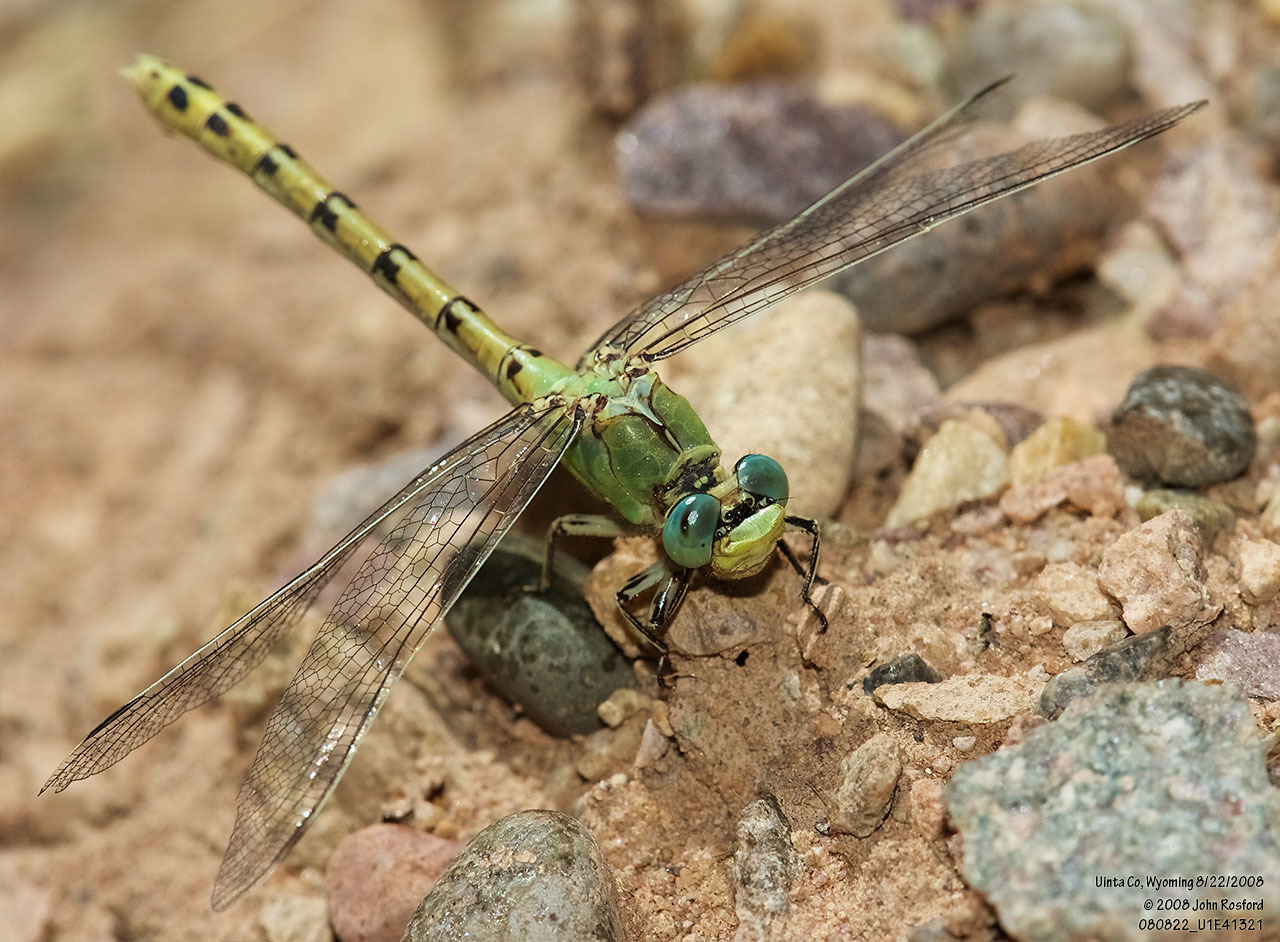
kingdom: Animalia
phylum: Arthropoda
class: Insecta
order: Odonata
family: Gomphidae
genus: Ophiogomphus
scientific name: Ophiogomphus severus
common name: Pale snaketail
